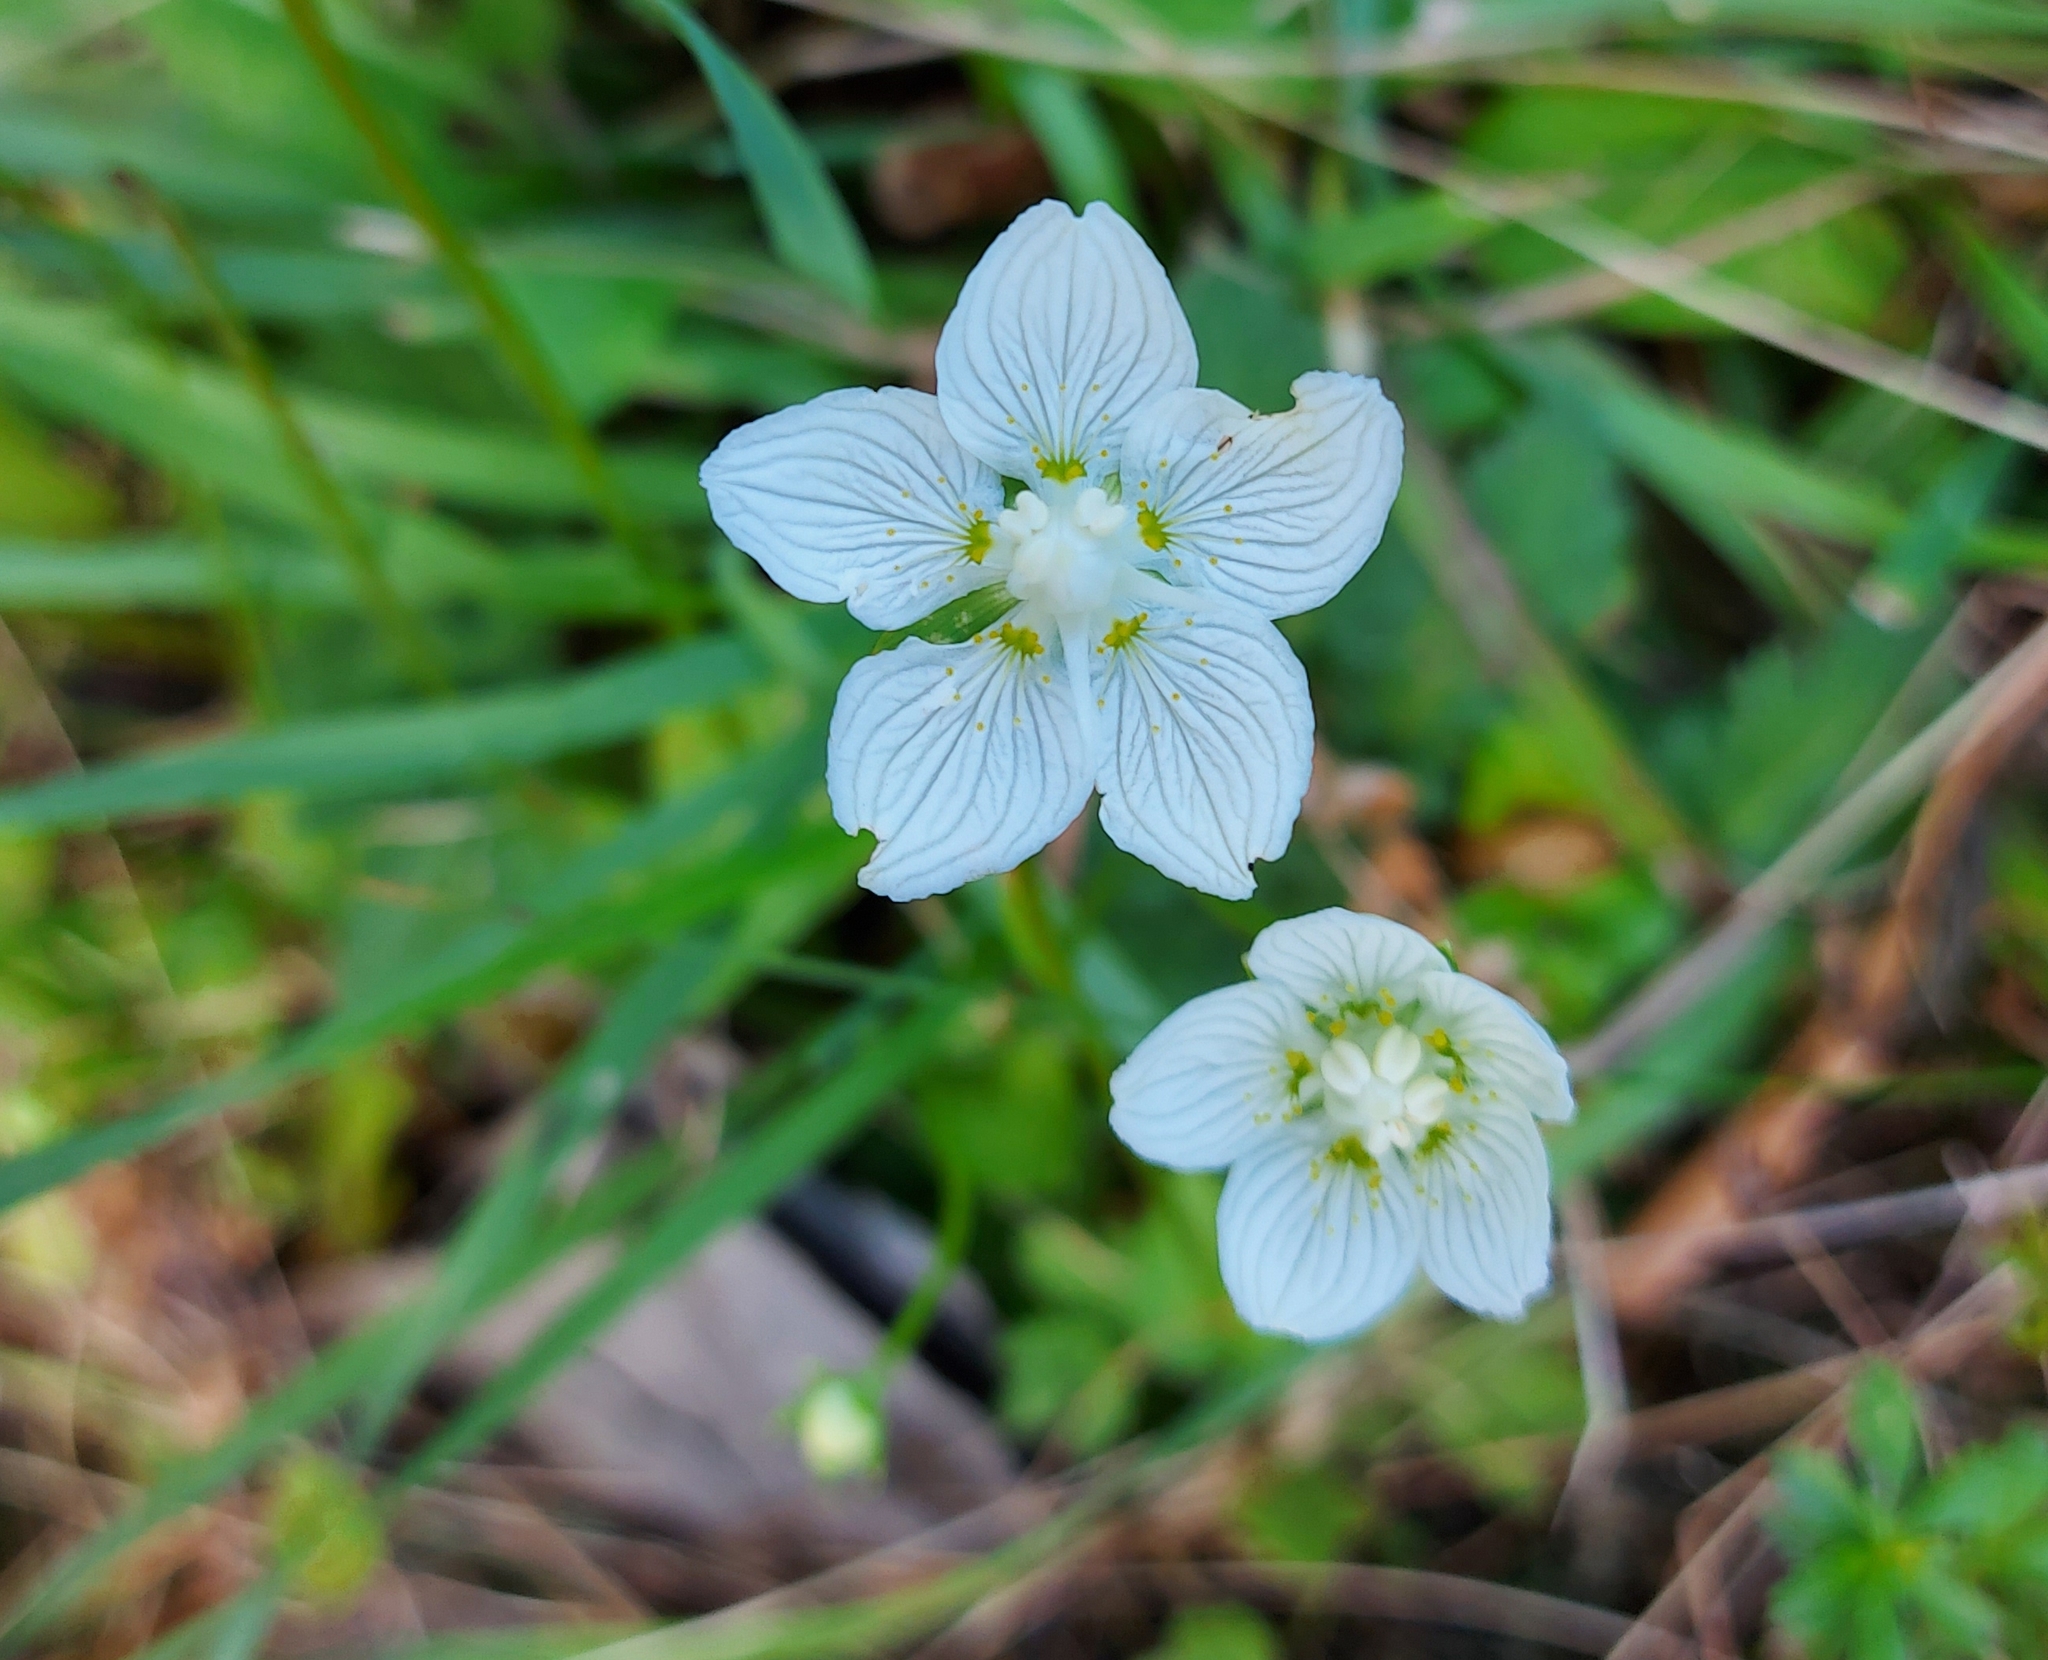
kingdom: Plantae
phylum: Tracheophyta
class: Magnoliopsida
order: Celastrales
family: Parnassiaceae
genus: Parnassia
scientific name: Parnassia palustris
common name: Grass-of-parnassus
